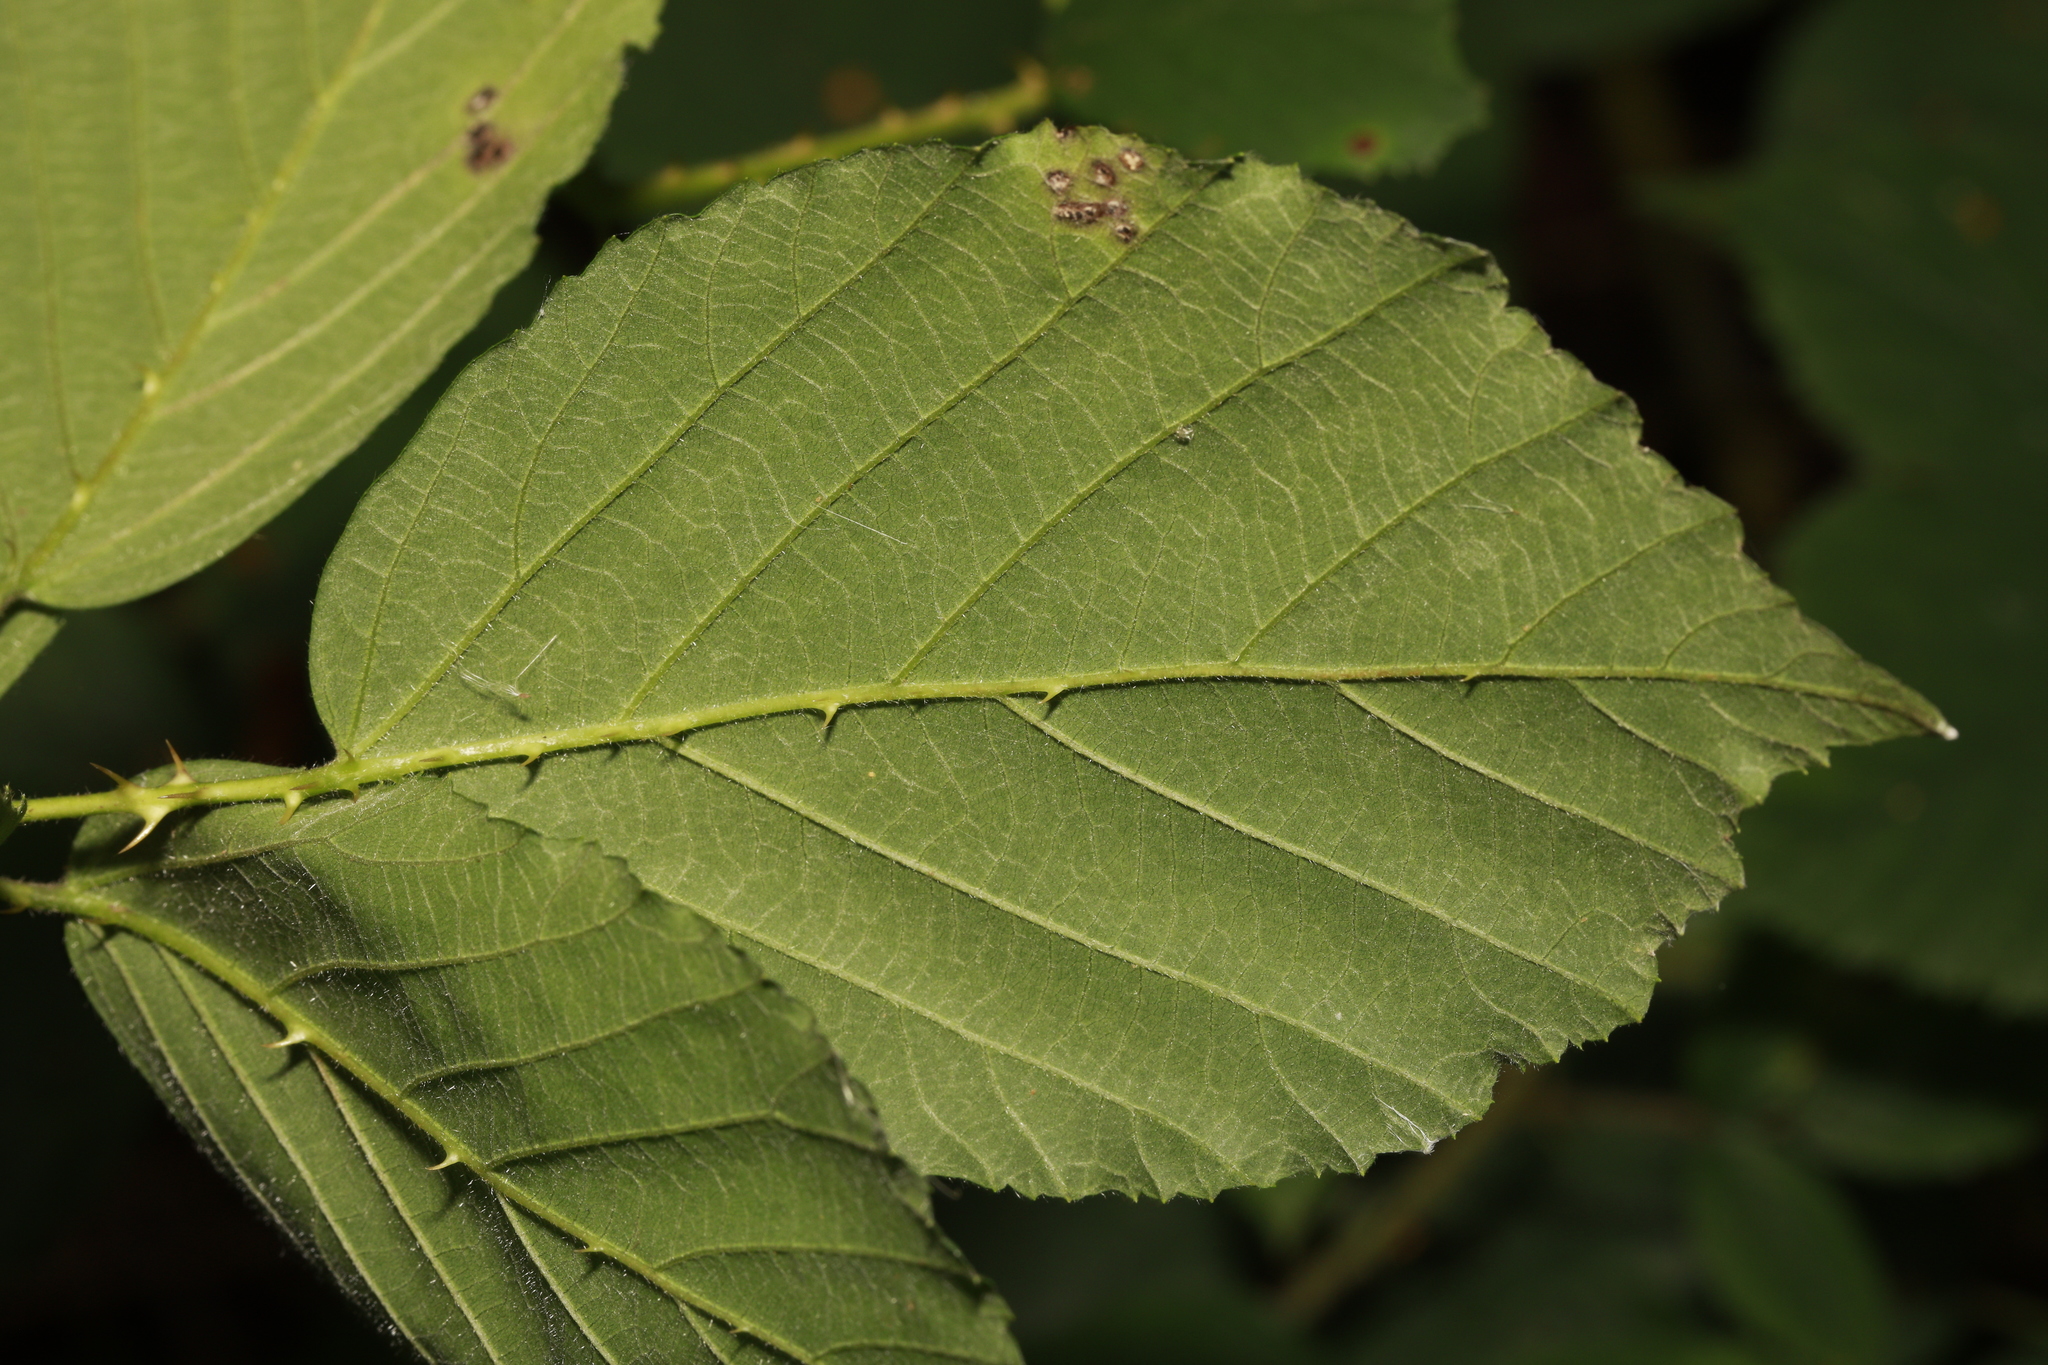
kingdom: Plantae
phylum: Tracheophyta
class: Magnoliopsida
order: Rosales
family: Rosaceae
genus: Rubus
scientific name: Rubus cissburiensis
